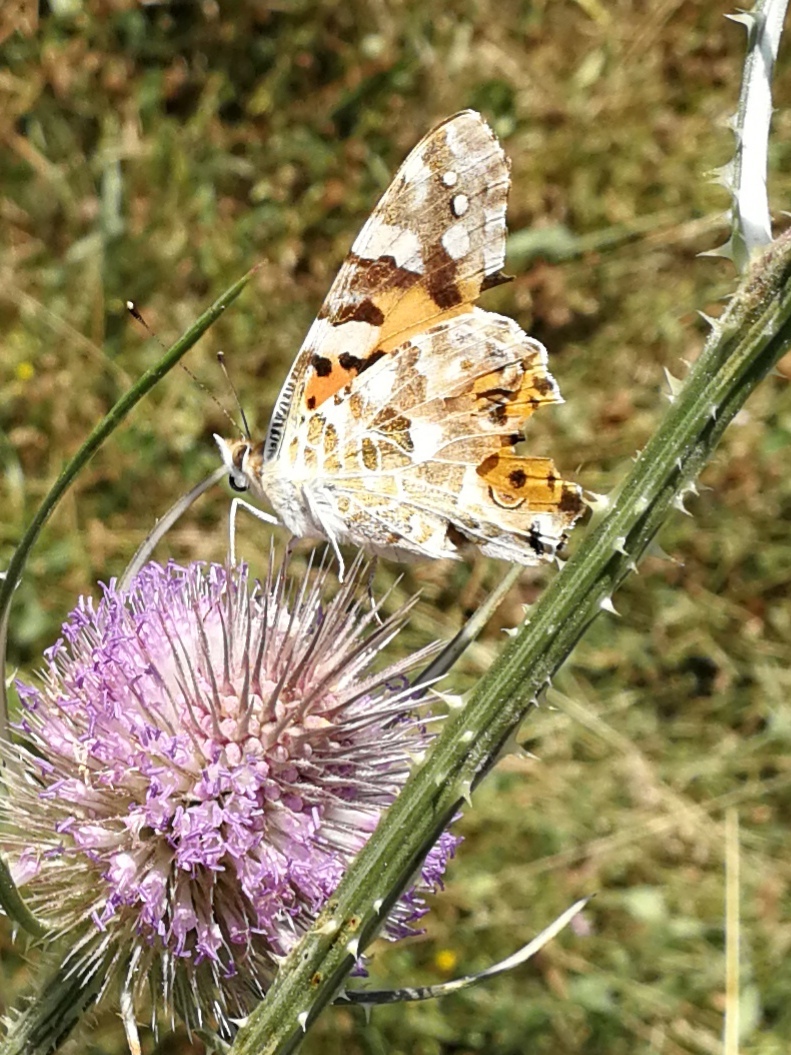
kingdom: Animalia
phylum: Arthropoda
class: Insecta
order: Lepidoptera
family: Nymphalidae
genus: Vanessa
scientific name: Vanessa cardui
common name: Painted lady
